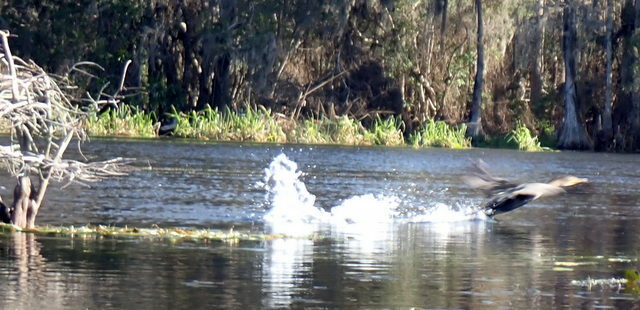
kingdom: Animalia
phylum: Chordata
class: Aves
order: Suliformes
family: Phalacrocoracidae
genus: Phalacrocorax
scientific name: Phalacrocorax auritus
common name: Double-crested cormorant
